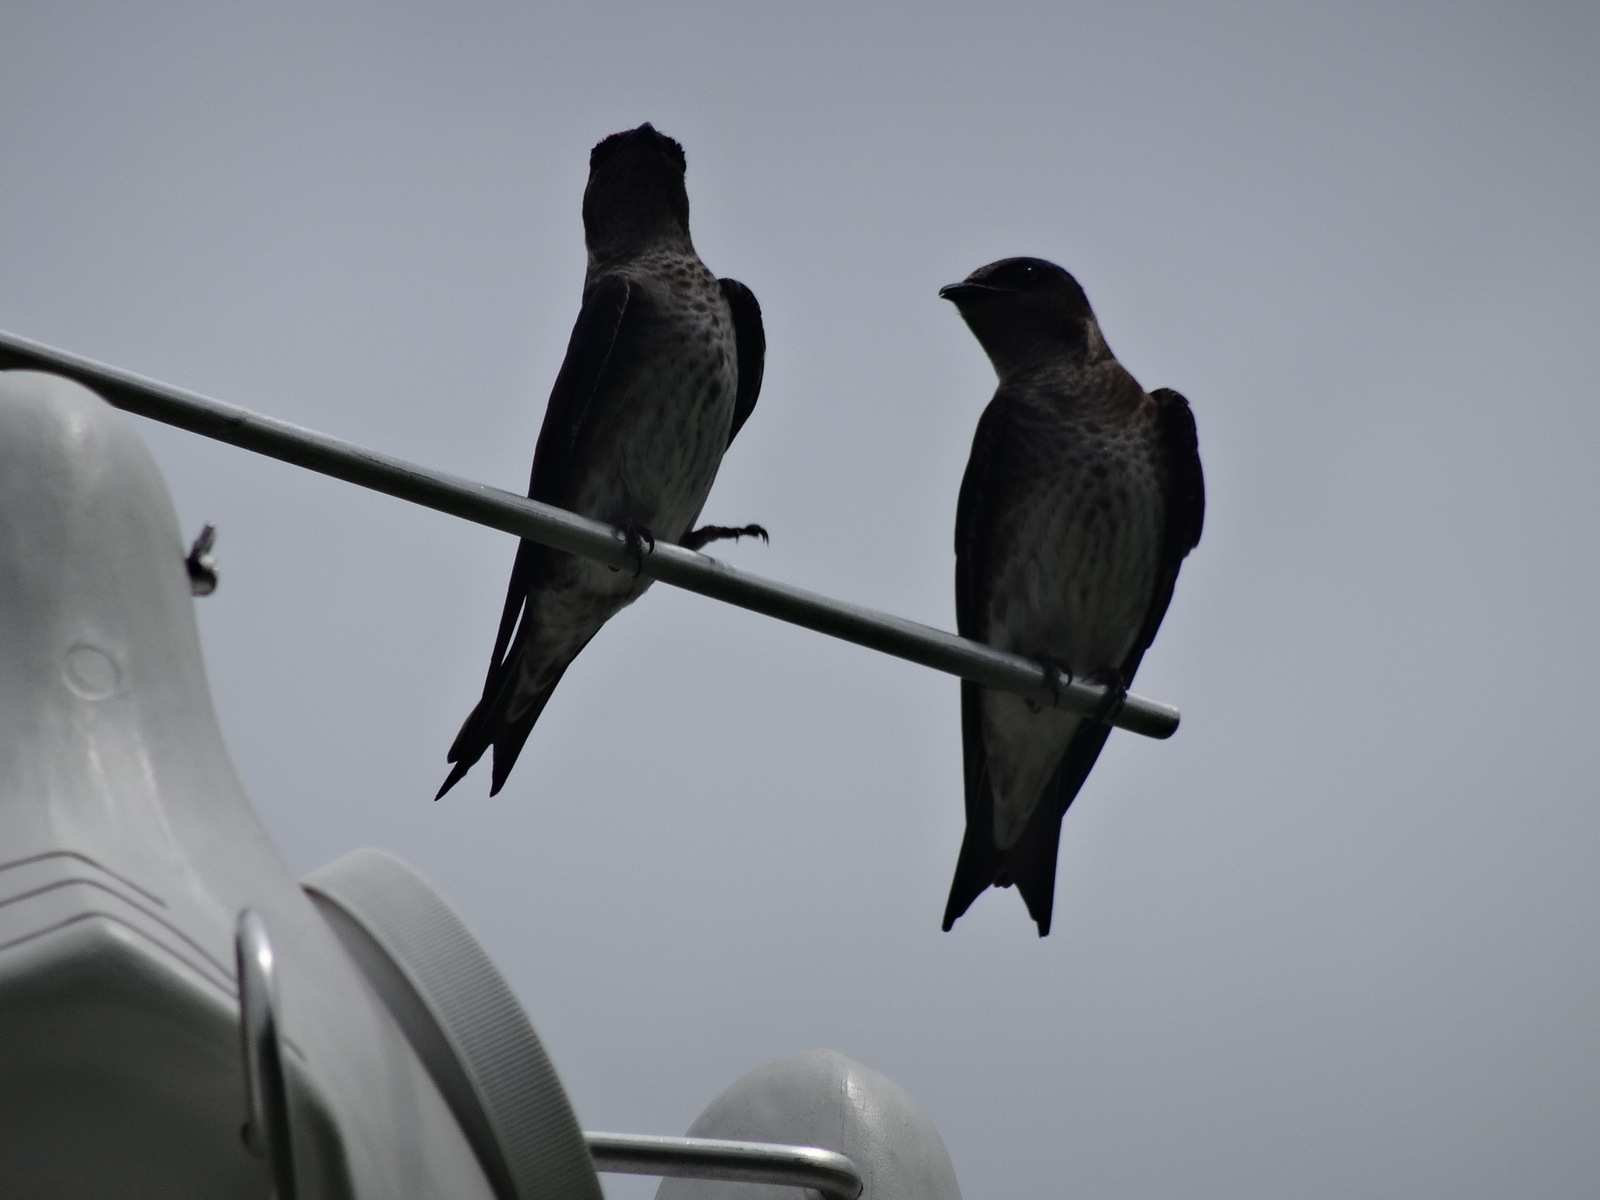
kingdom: Animalia
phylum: Chordata
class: Aves
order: Passeriformes
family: Hirundinidae
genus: Progne
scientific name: Progne subis
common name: Purple martin
